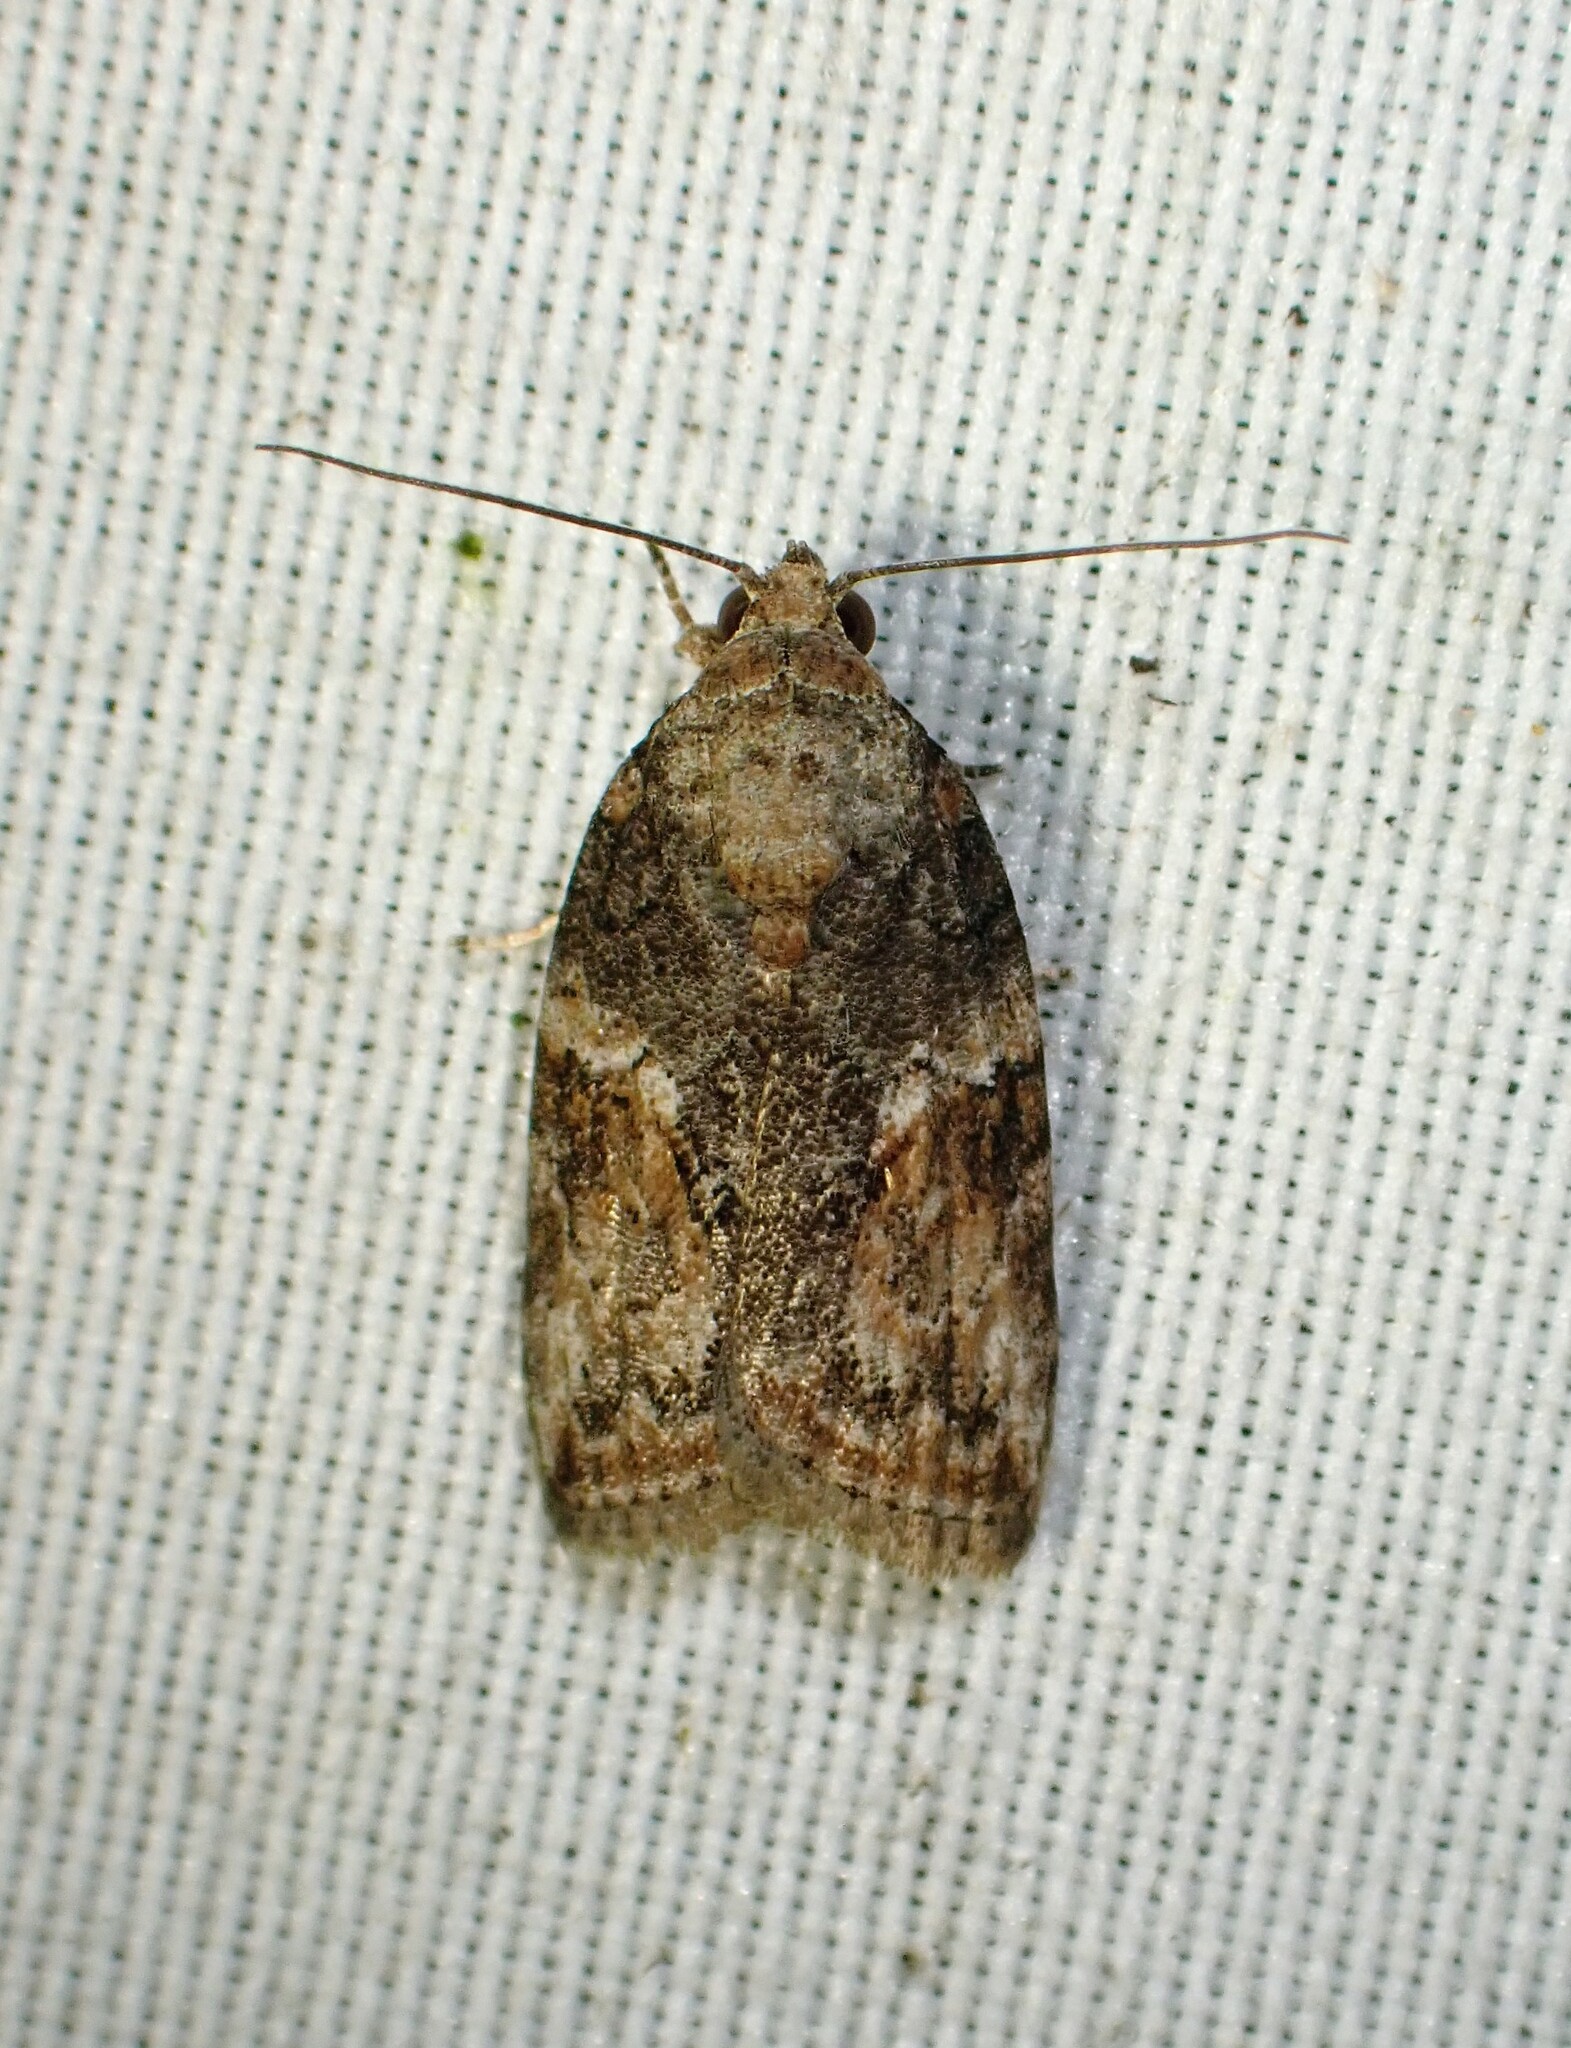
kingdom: Animalia
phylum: Arthropoda
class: Insecta
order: Lepidoptera
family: Nolidae
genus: Garella
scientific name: Garella nilotica
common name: Black-olive caterpillar moth
